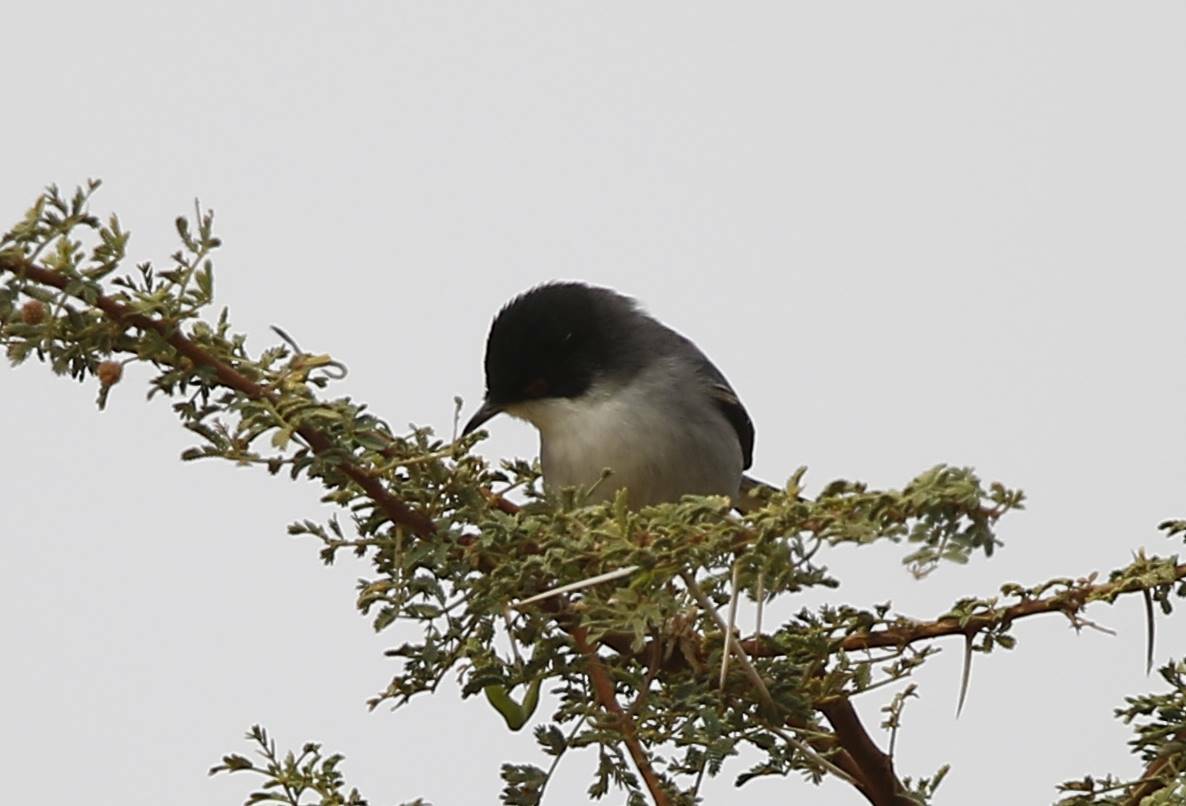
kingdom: Animalia
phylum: Chordata
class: Aves
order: Passeriformes
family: Sylviidae
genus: Curruca
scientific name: Curruca melanocephala
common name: Sardinian warbler
